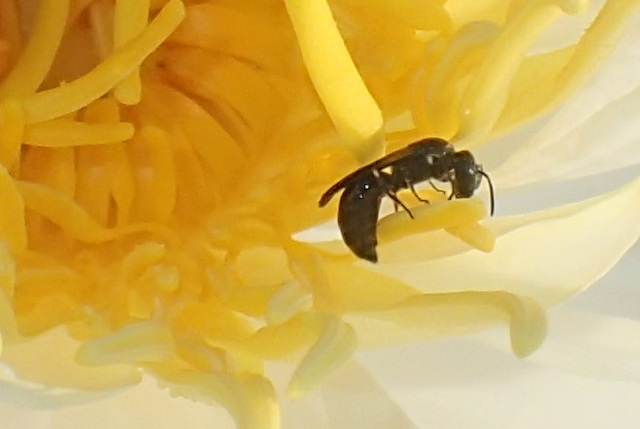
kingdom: Animalia
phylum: Arthropoda
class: Insecta
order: Hymenoptera
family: Colletidae
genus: Hylaeus
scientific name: Hylaeus
